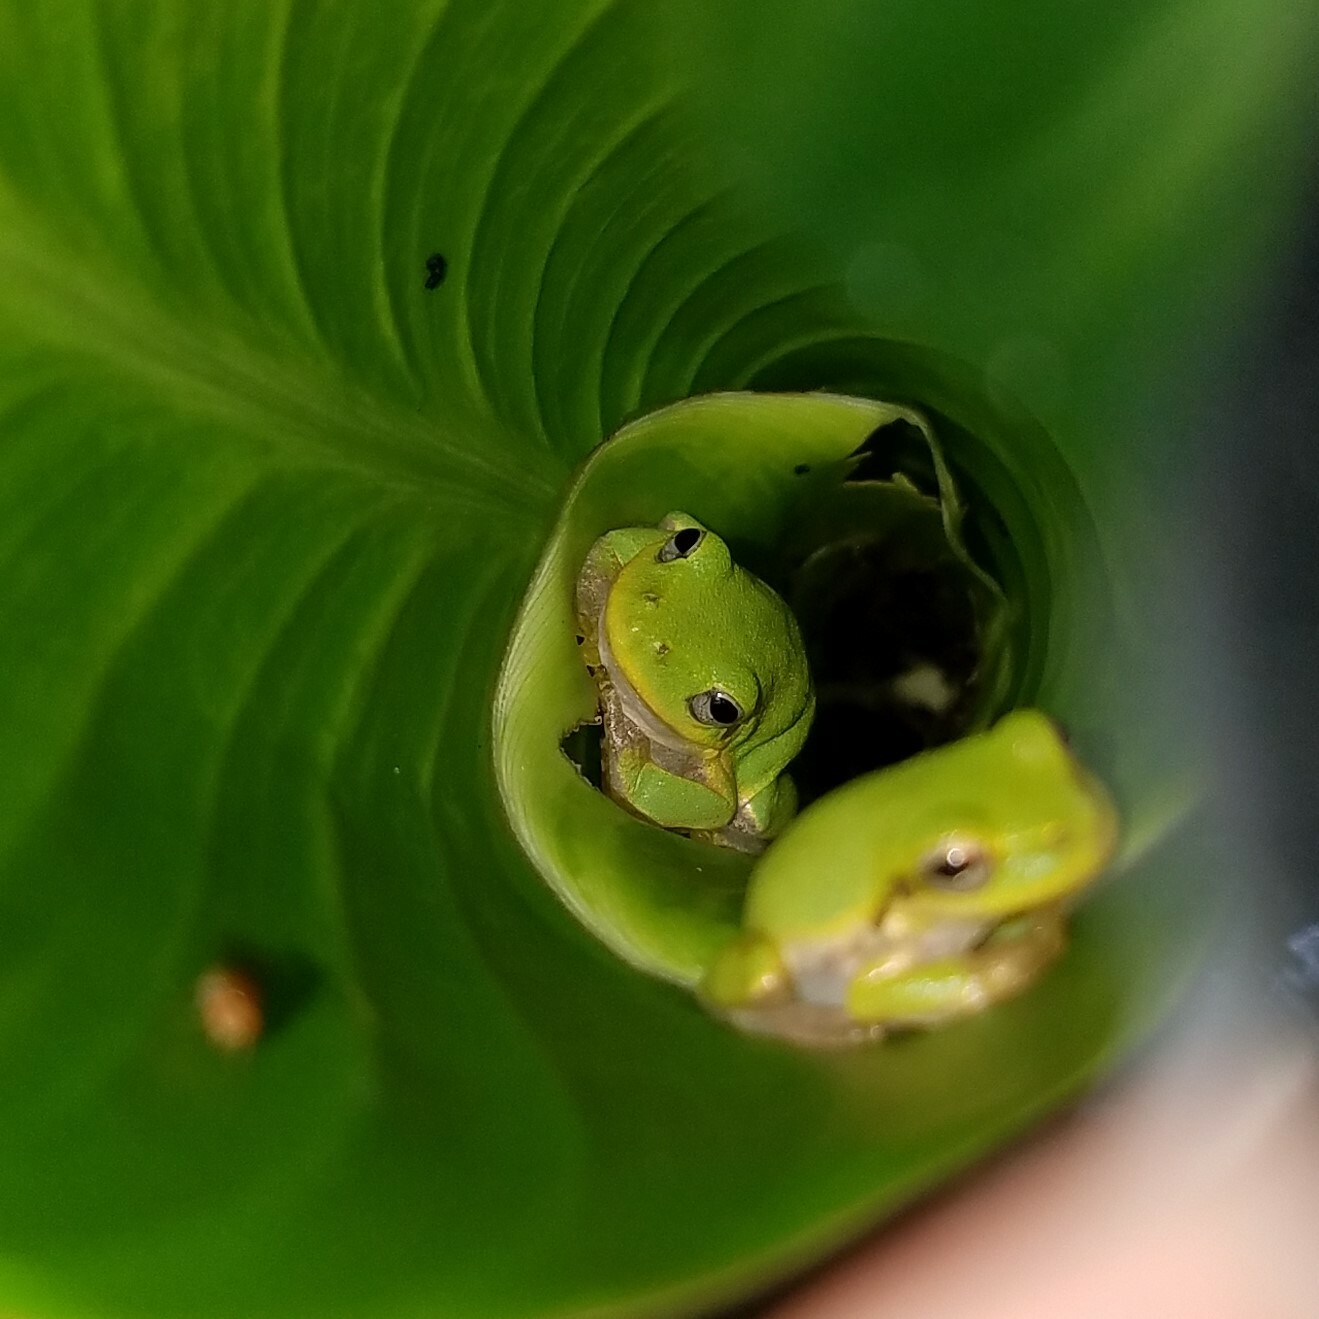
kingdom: Animalia
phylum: Chordata
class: Amphibia
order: Anura
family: Hylidae
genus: Dryophytes
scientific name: Dryophytes squirellus
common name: Squirrel treefrog
